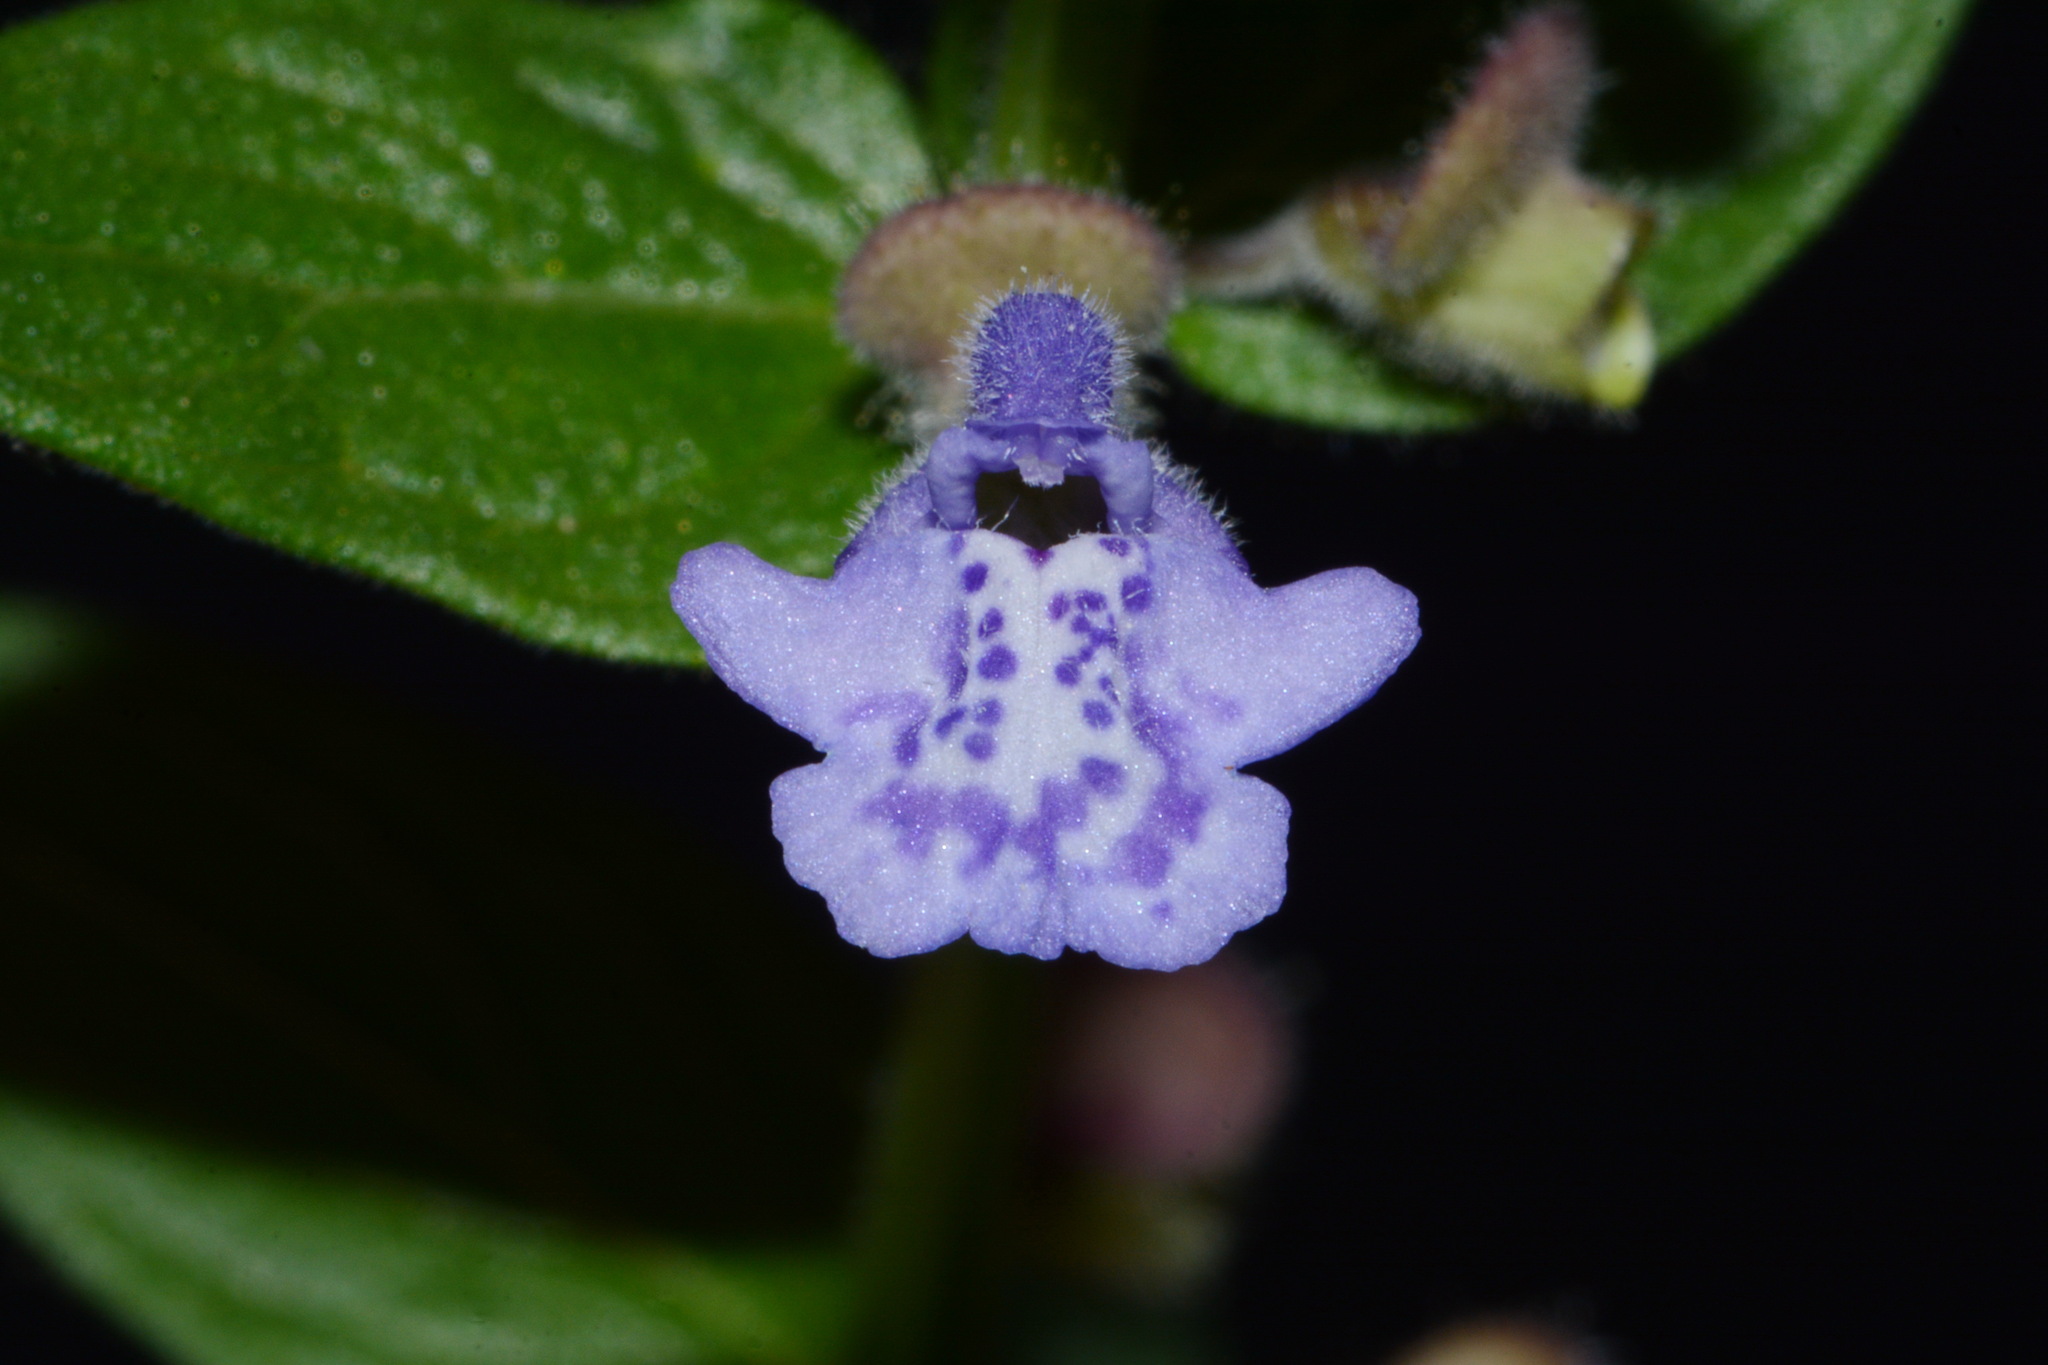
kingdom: Plantae
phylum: Tracheophyta
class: Magnoliopsida
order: Lamiales
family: Lamiaceae
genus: Scutellaria
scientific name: Scutellaria parvula
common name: Little scullcap
